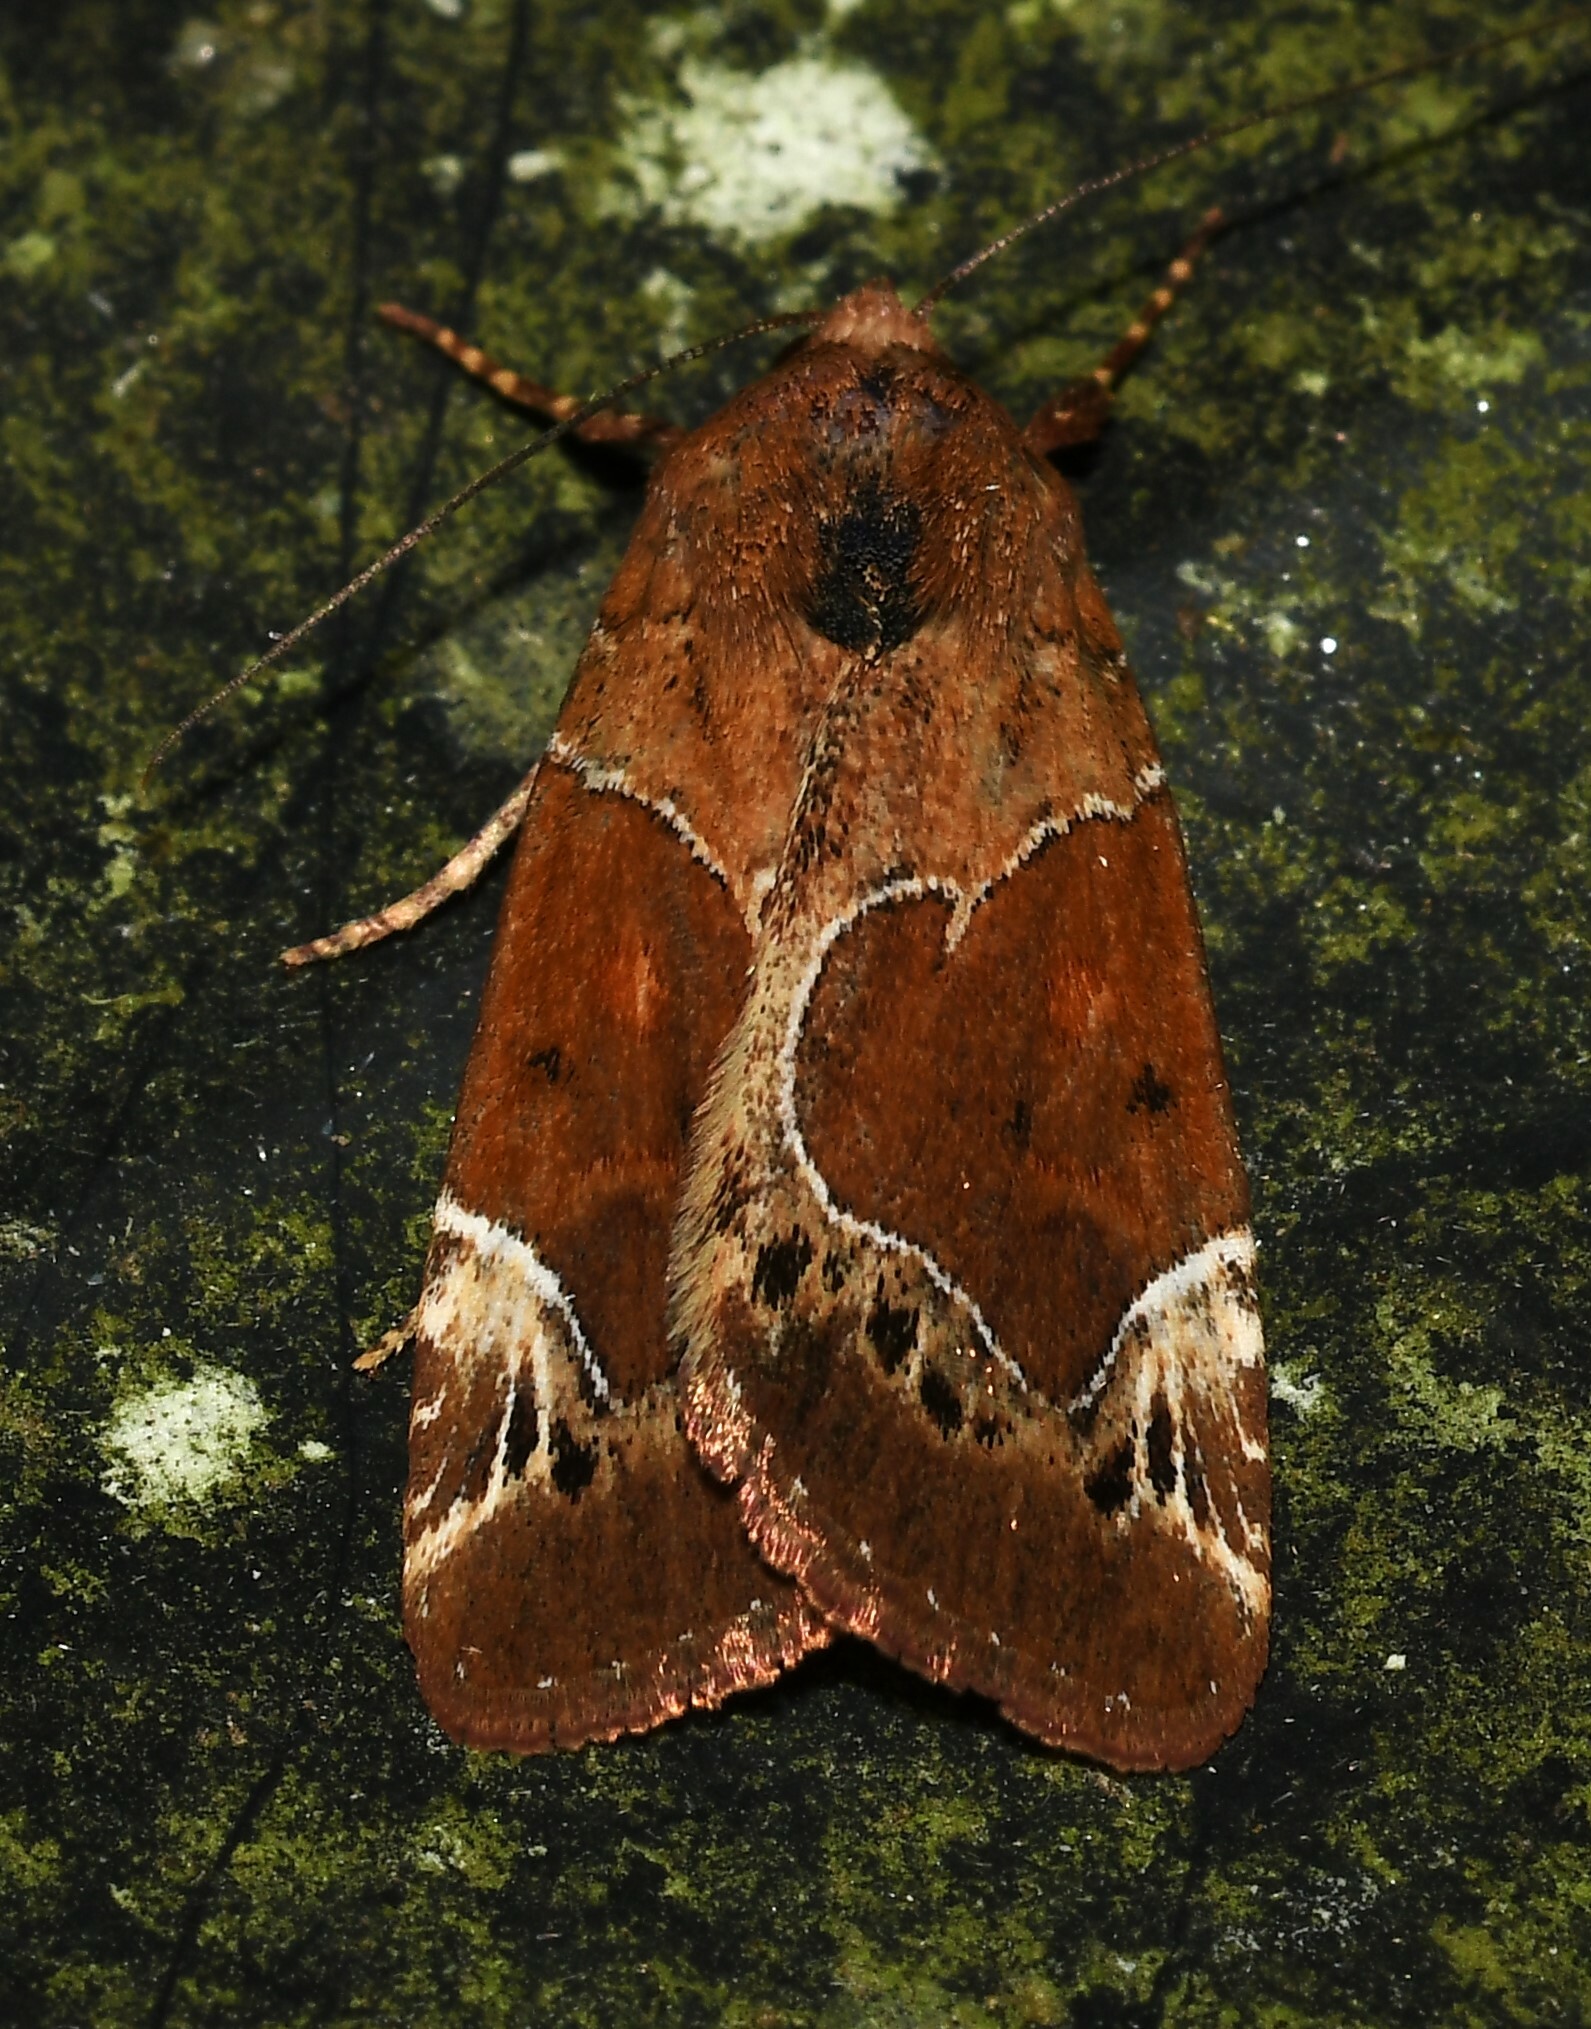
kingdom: Animalia
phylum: Arthropoda
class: Insecta
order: Lepidoptera
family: Noctuidae
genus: Hampsonodes
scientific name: Hampsonodes mastoides
